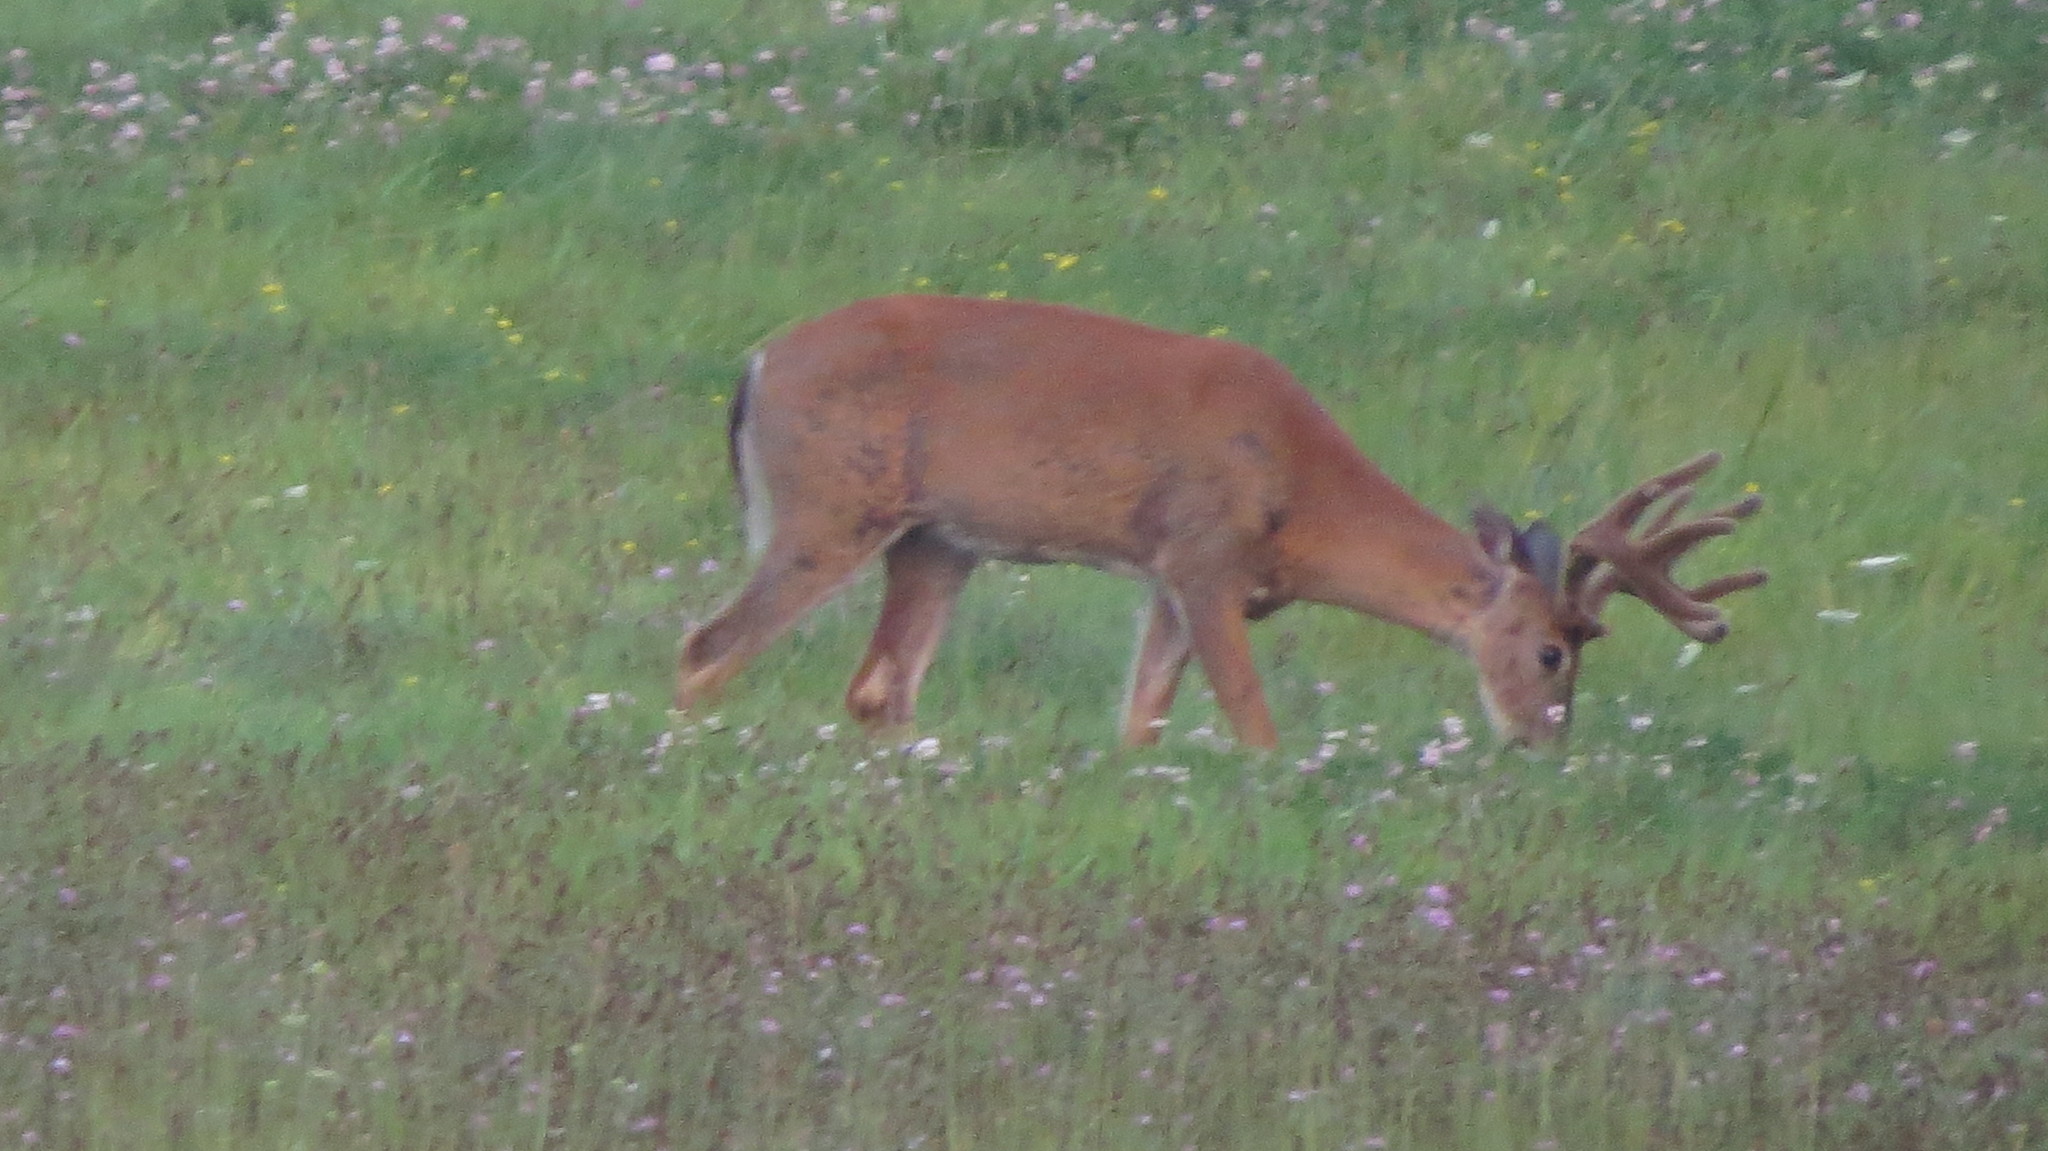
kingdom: Animalia
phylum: Chordata
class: Mammalia
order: Artiodactyla
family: Cervidae
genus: Odocoileus
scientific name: Odocoileus virginianus
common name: White-tailed deer
